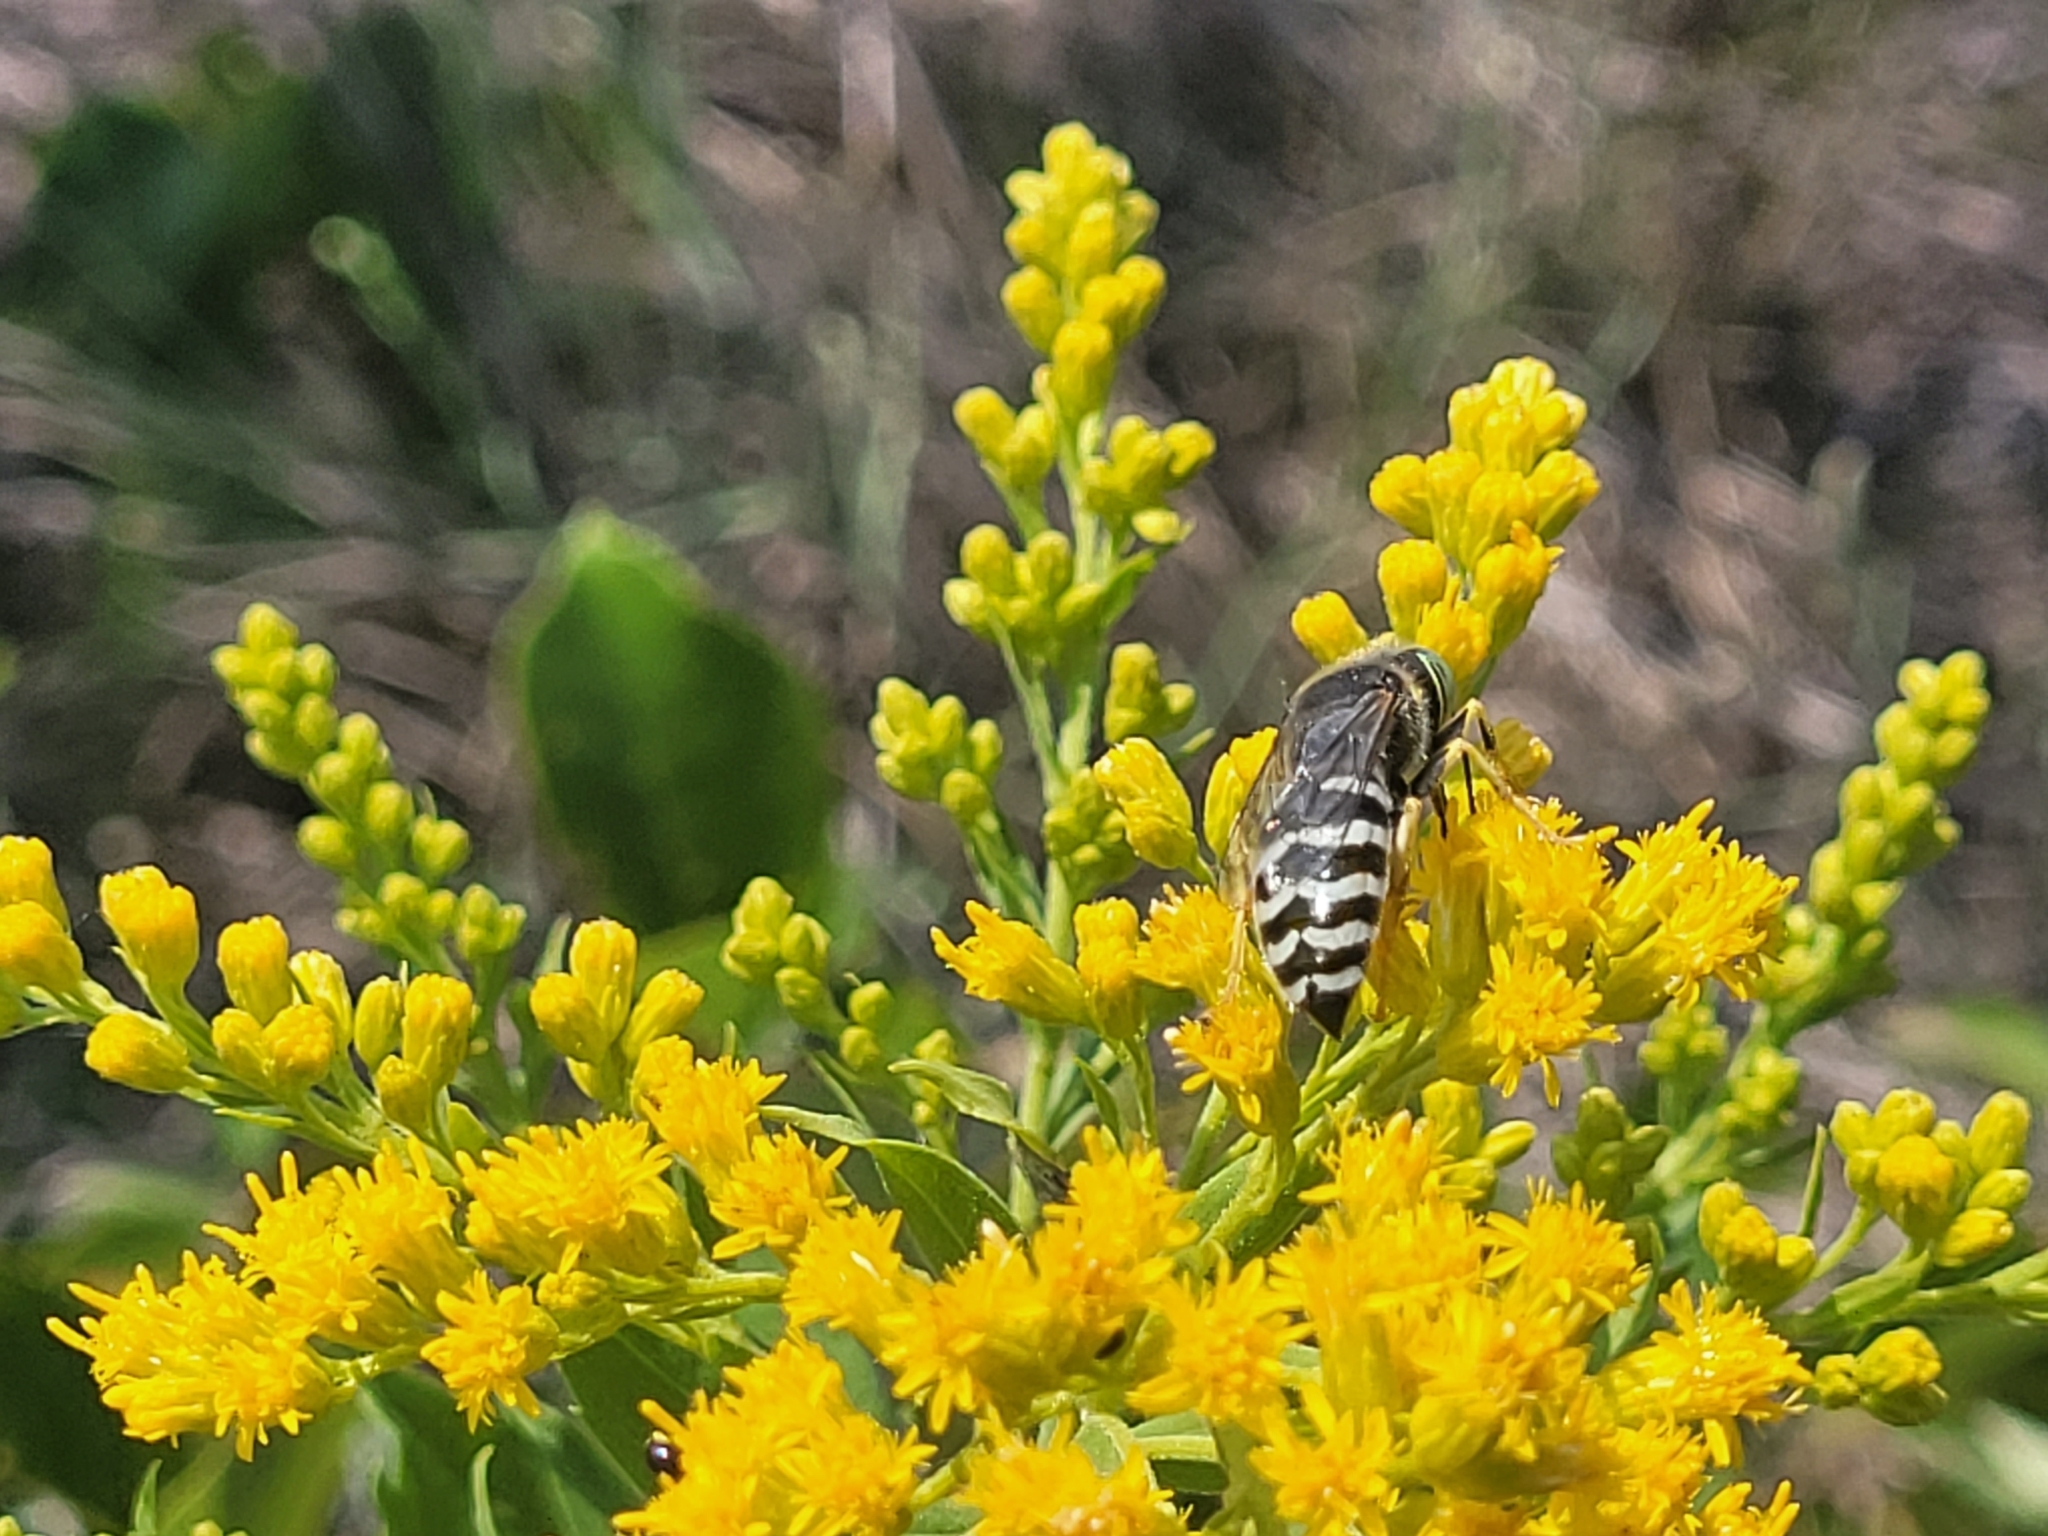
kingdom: Animalia
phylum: Arthropoda
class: Insecta
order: Hymenoptera
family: Crabronidae
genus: Bembix
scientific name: Bembix americana
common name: American sand wasp
